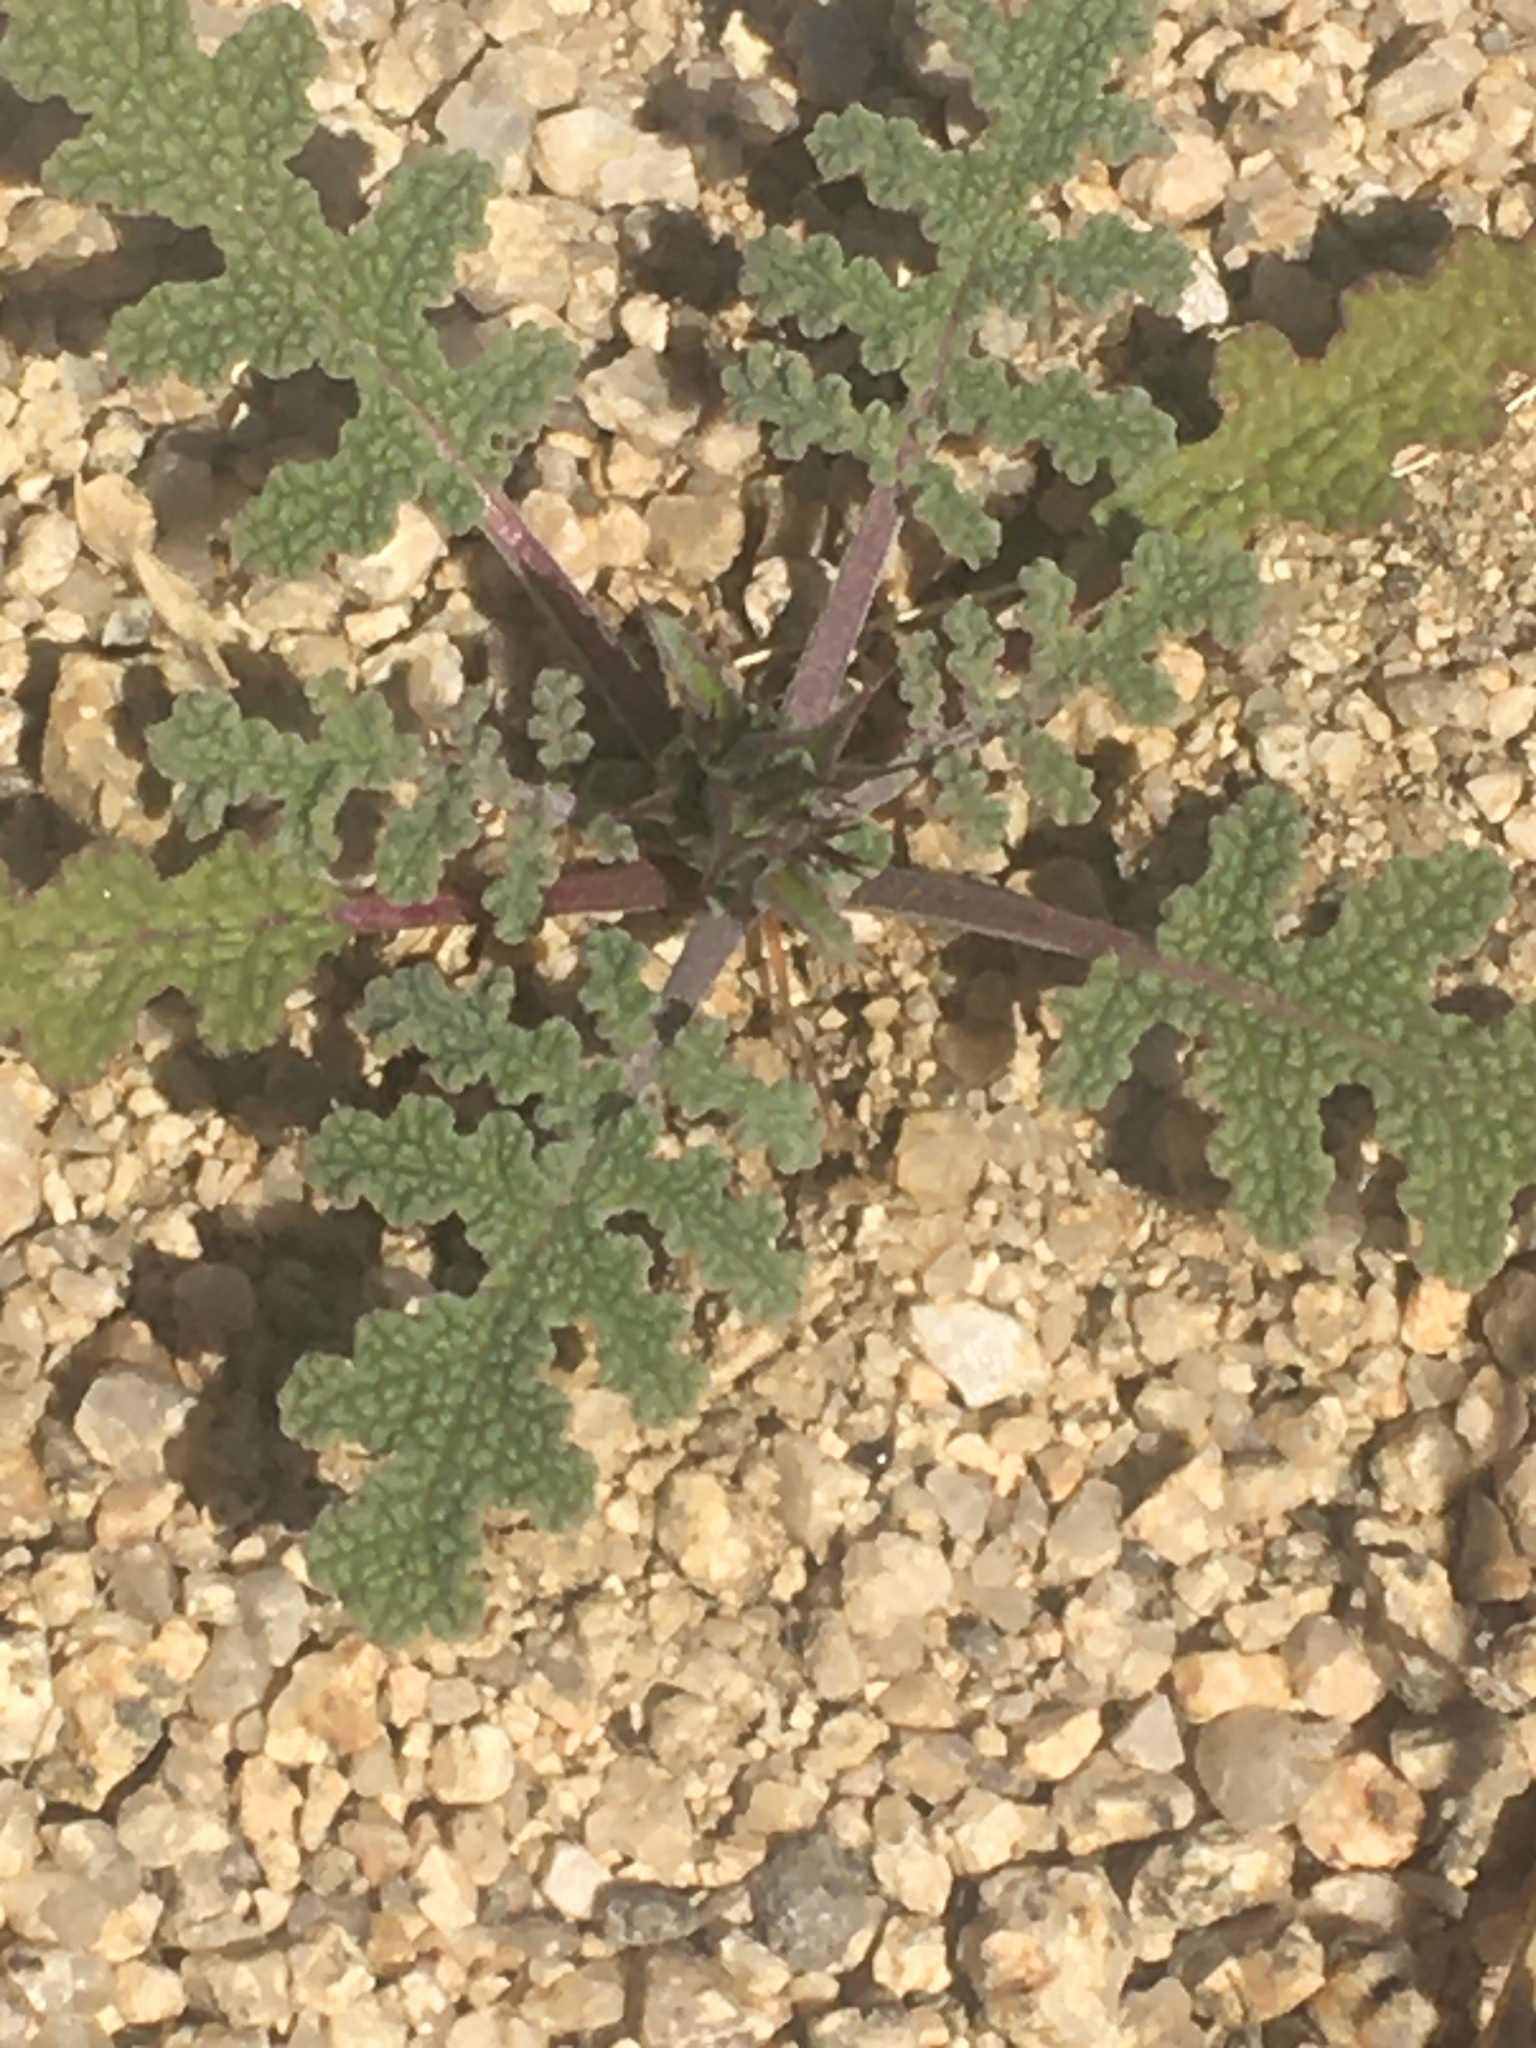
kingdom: Plantae
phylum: Tracheophyta
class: Magnoliopsida
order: Lamiales
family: Lamiaceae
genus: Salvia
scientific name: Salvia columbariae
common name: Chia
